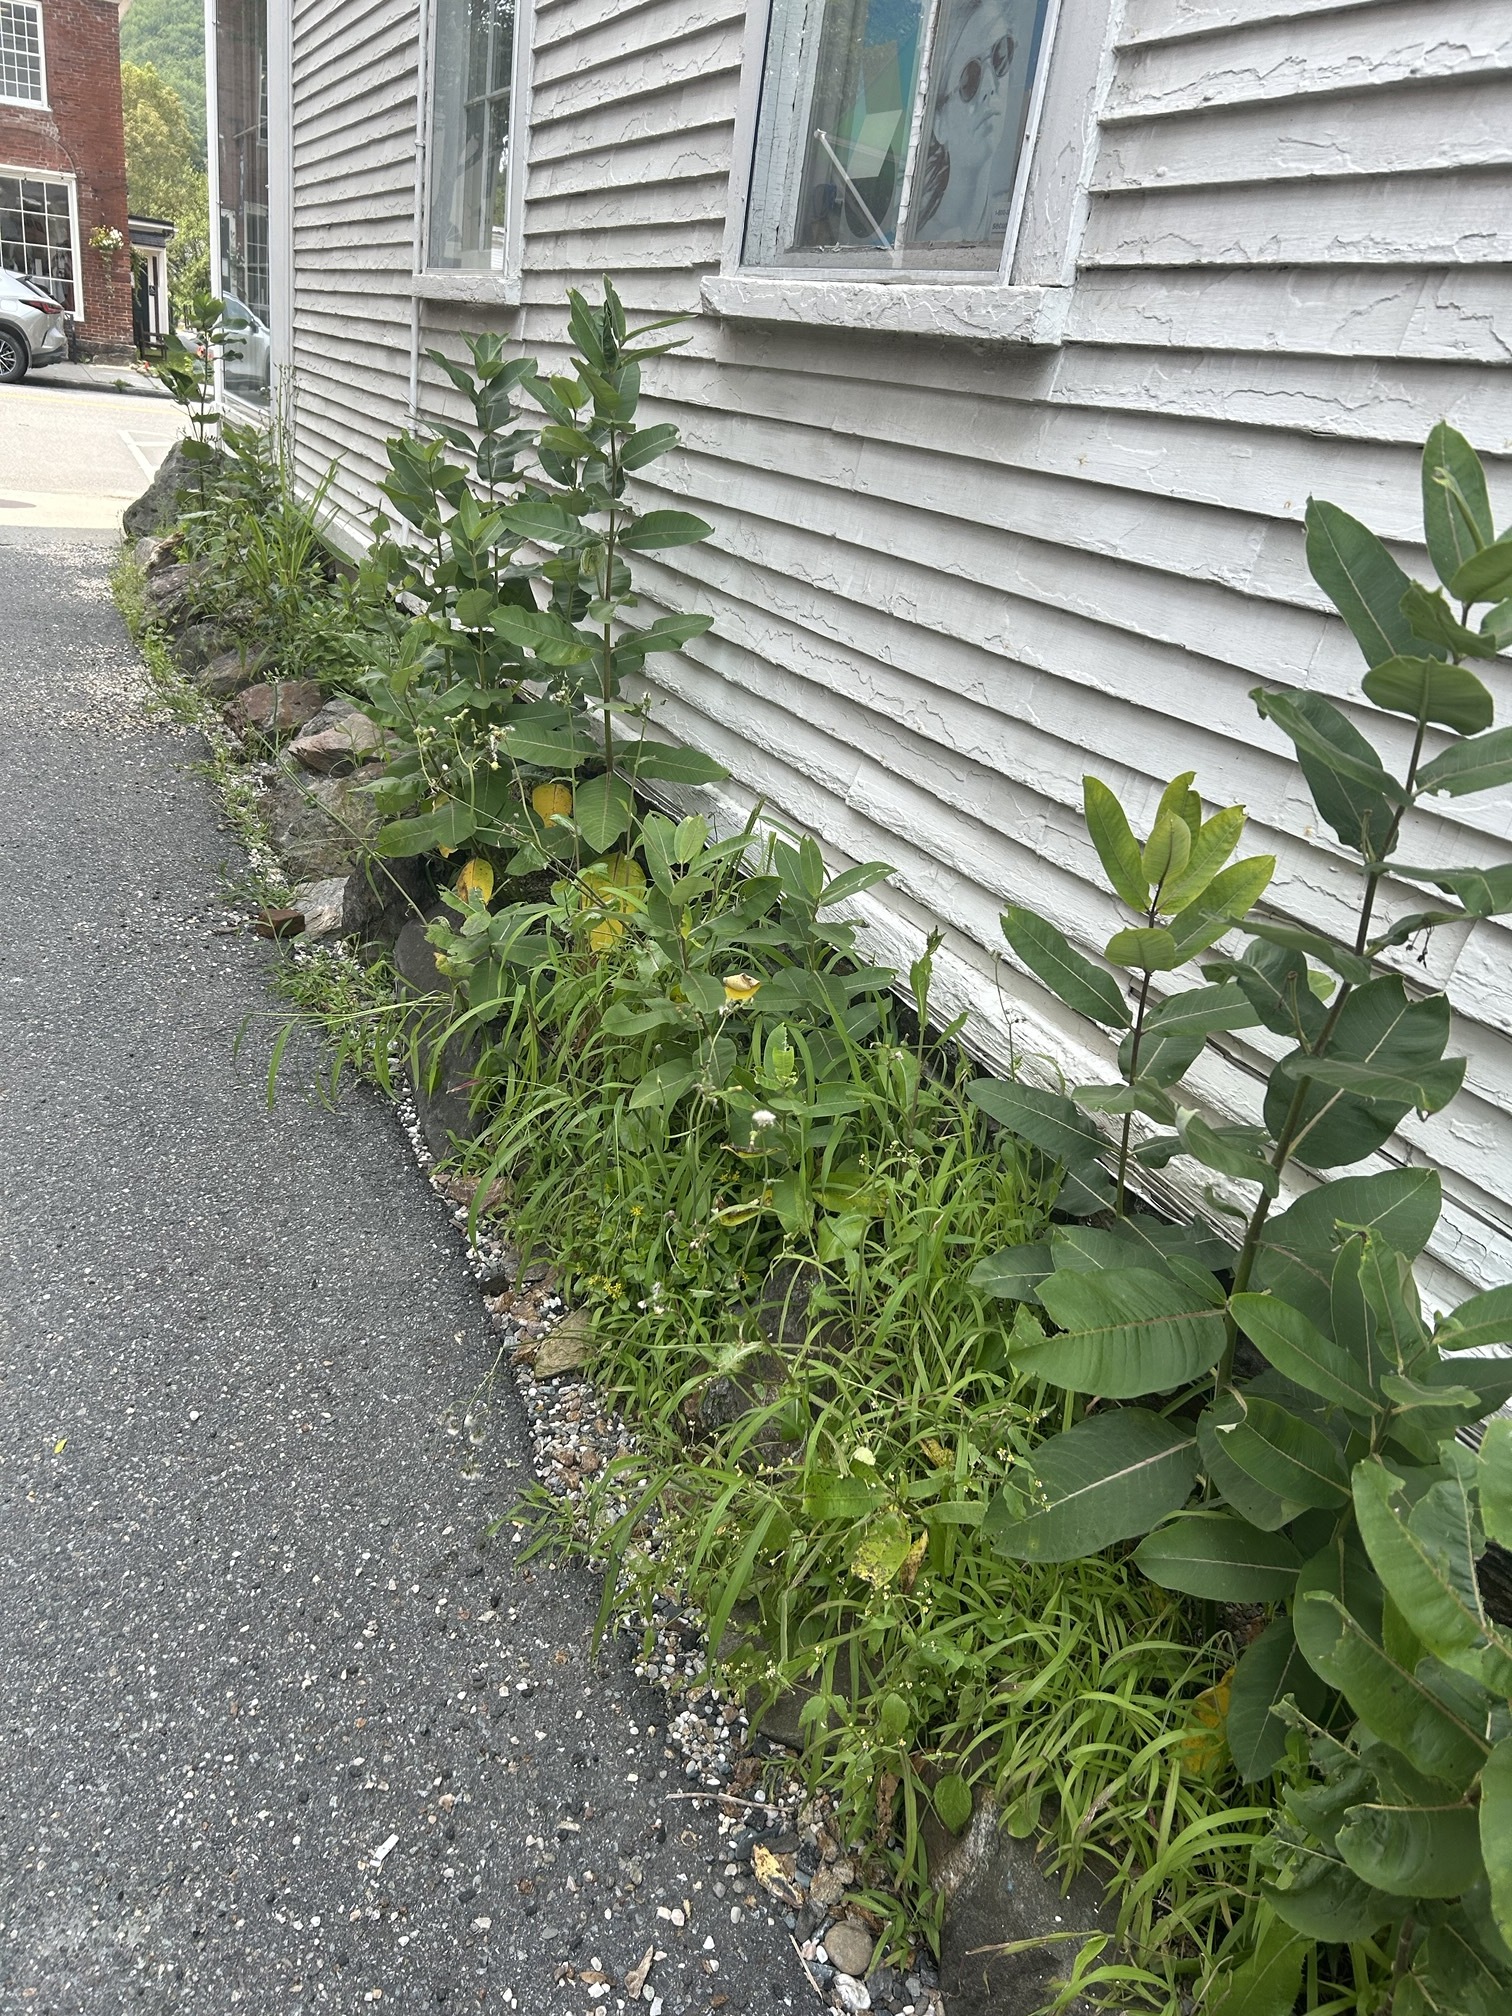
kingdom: Plantae
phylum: Tracheophyta
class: Magnoliopsida
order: Gentianales
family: Apocynaceae
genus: Asclepias
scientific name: Asclepias syriaca
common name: Common milkweed
